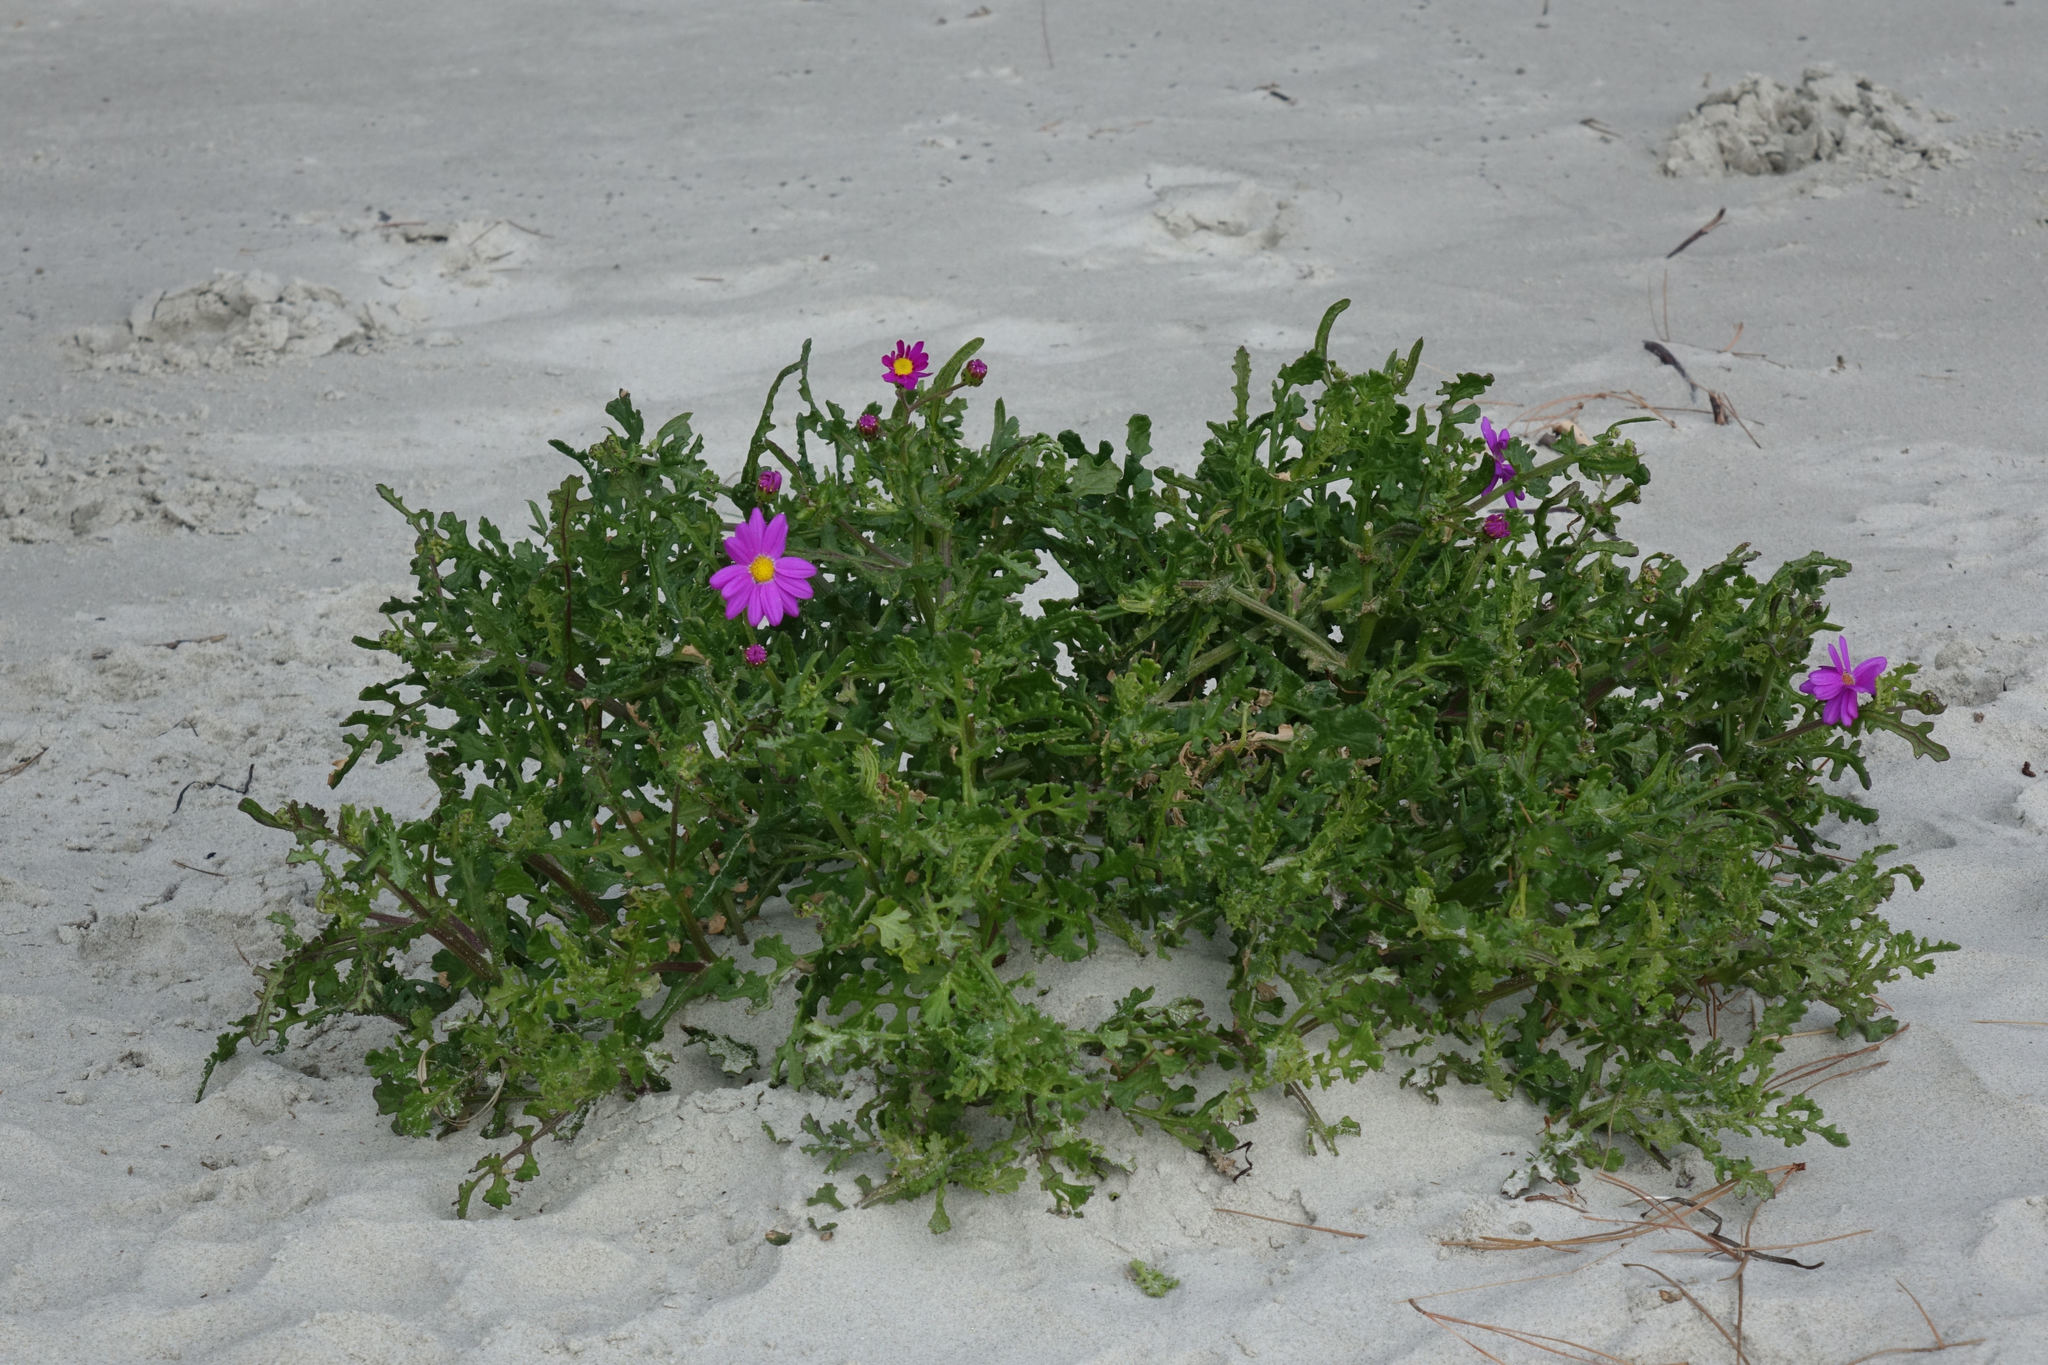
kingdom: Plantae
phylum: Tracheophyta
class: Magnoliopsida
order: Asterales
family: Asteraceae
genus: Senecio
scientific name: Senecio elegans
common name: Purple groundsel
